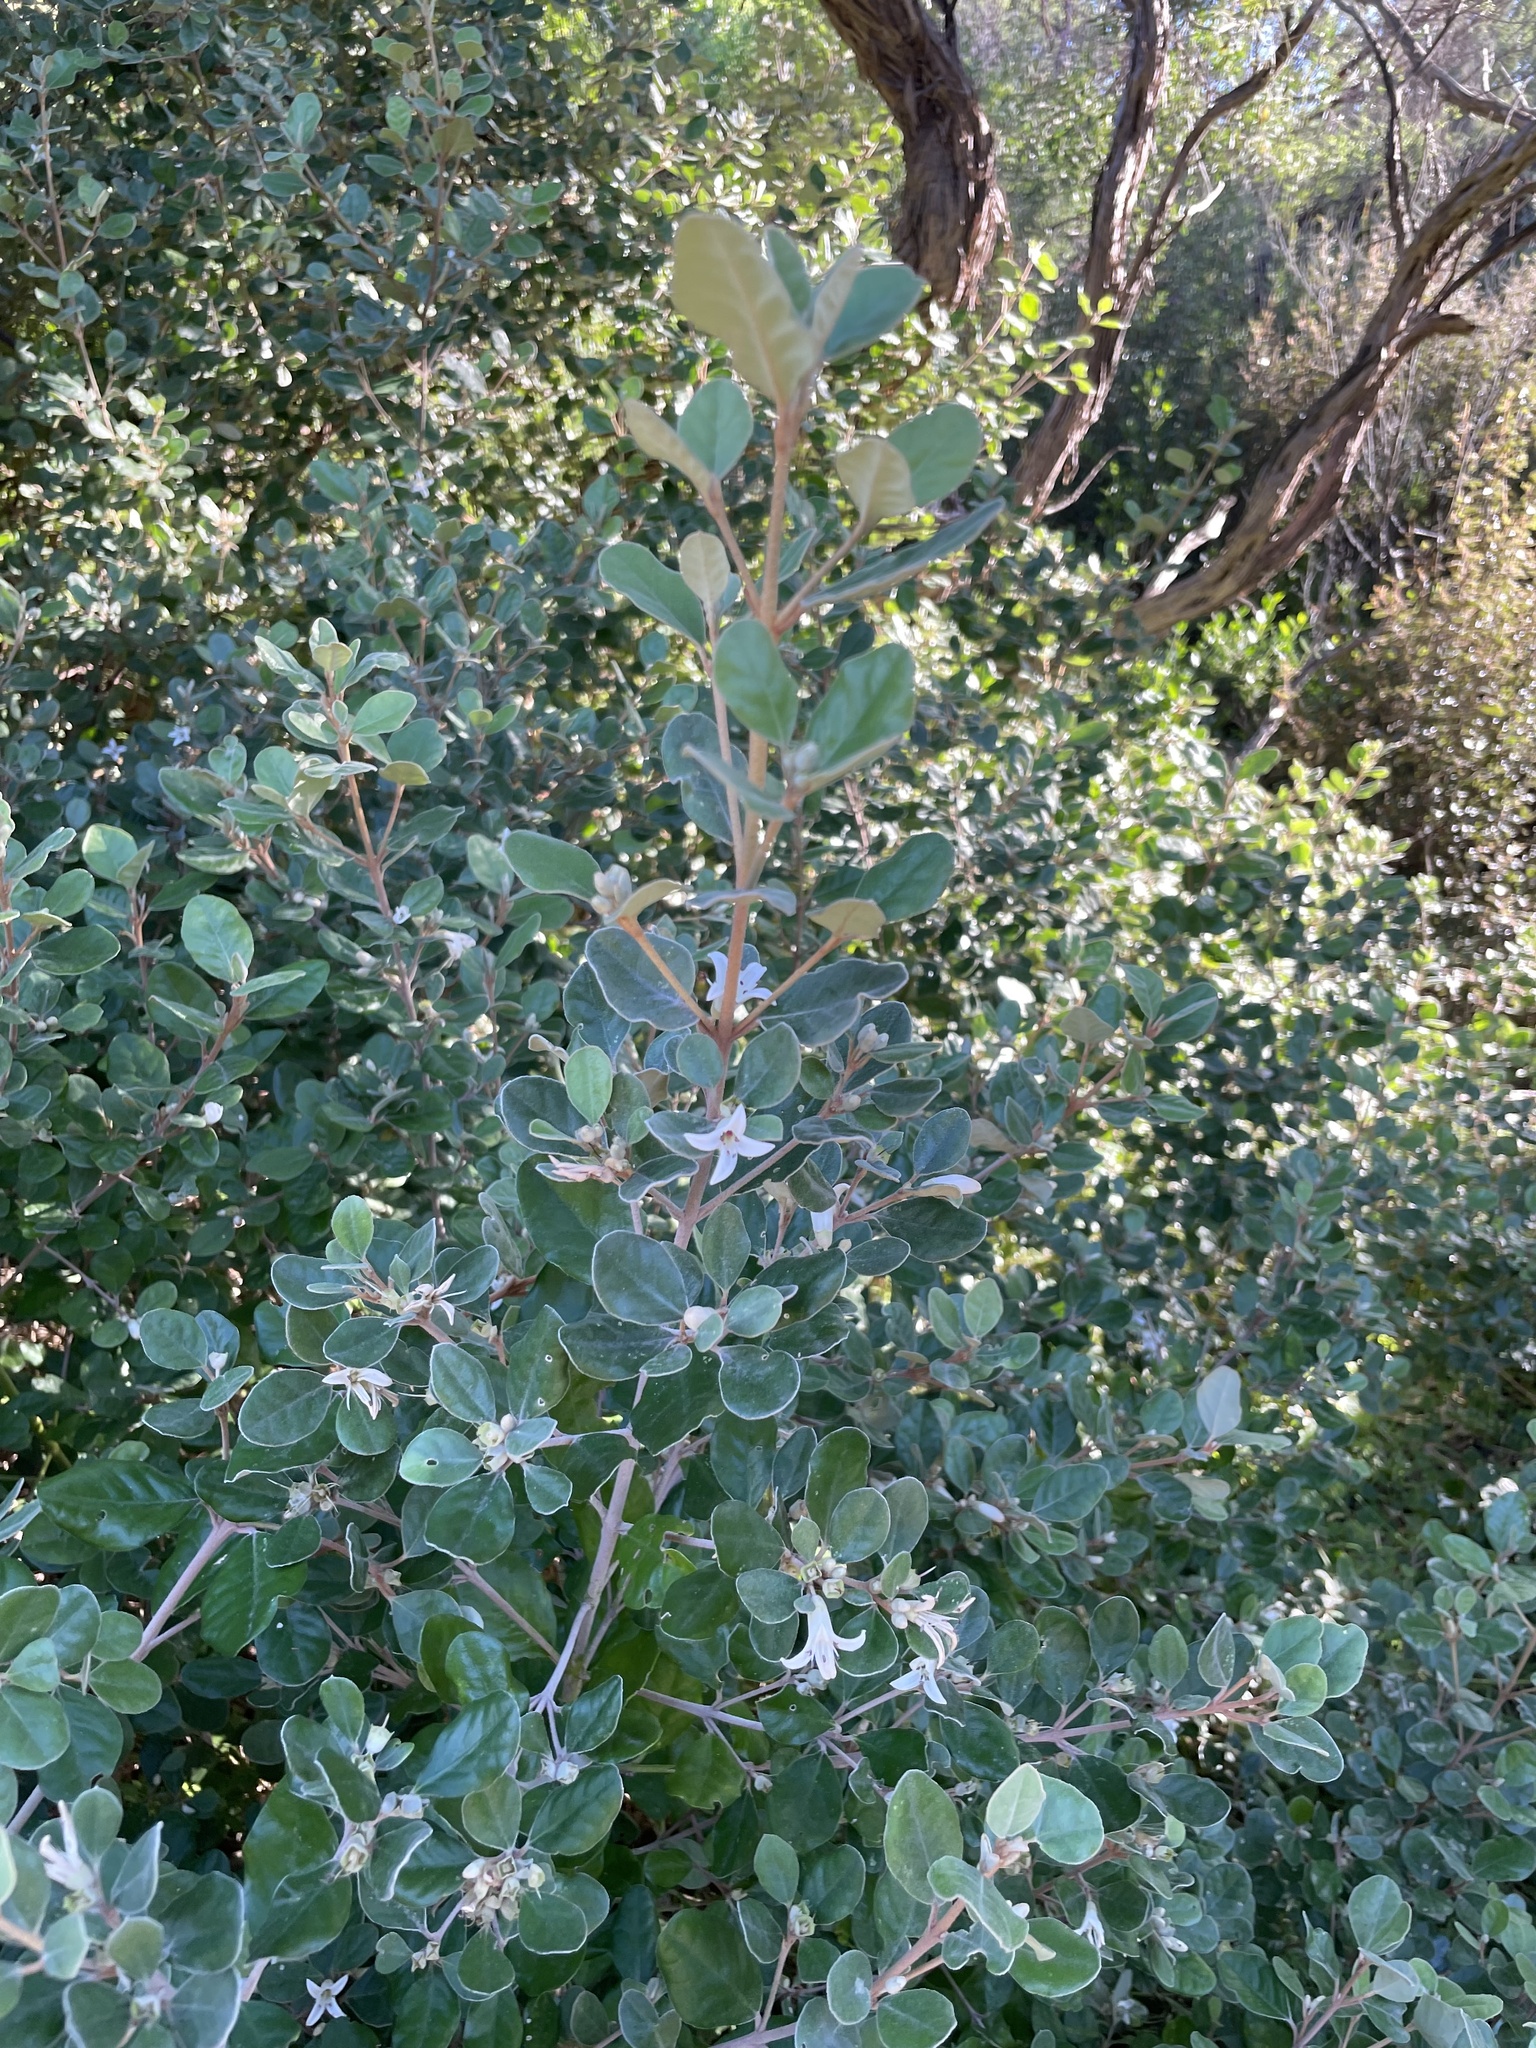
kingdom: Plantae
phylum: Tracheophyta
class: Magnoliopsida
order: Sapindales
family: Rutaceae
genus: Correa
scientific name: Correa alba
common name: White correa
